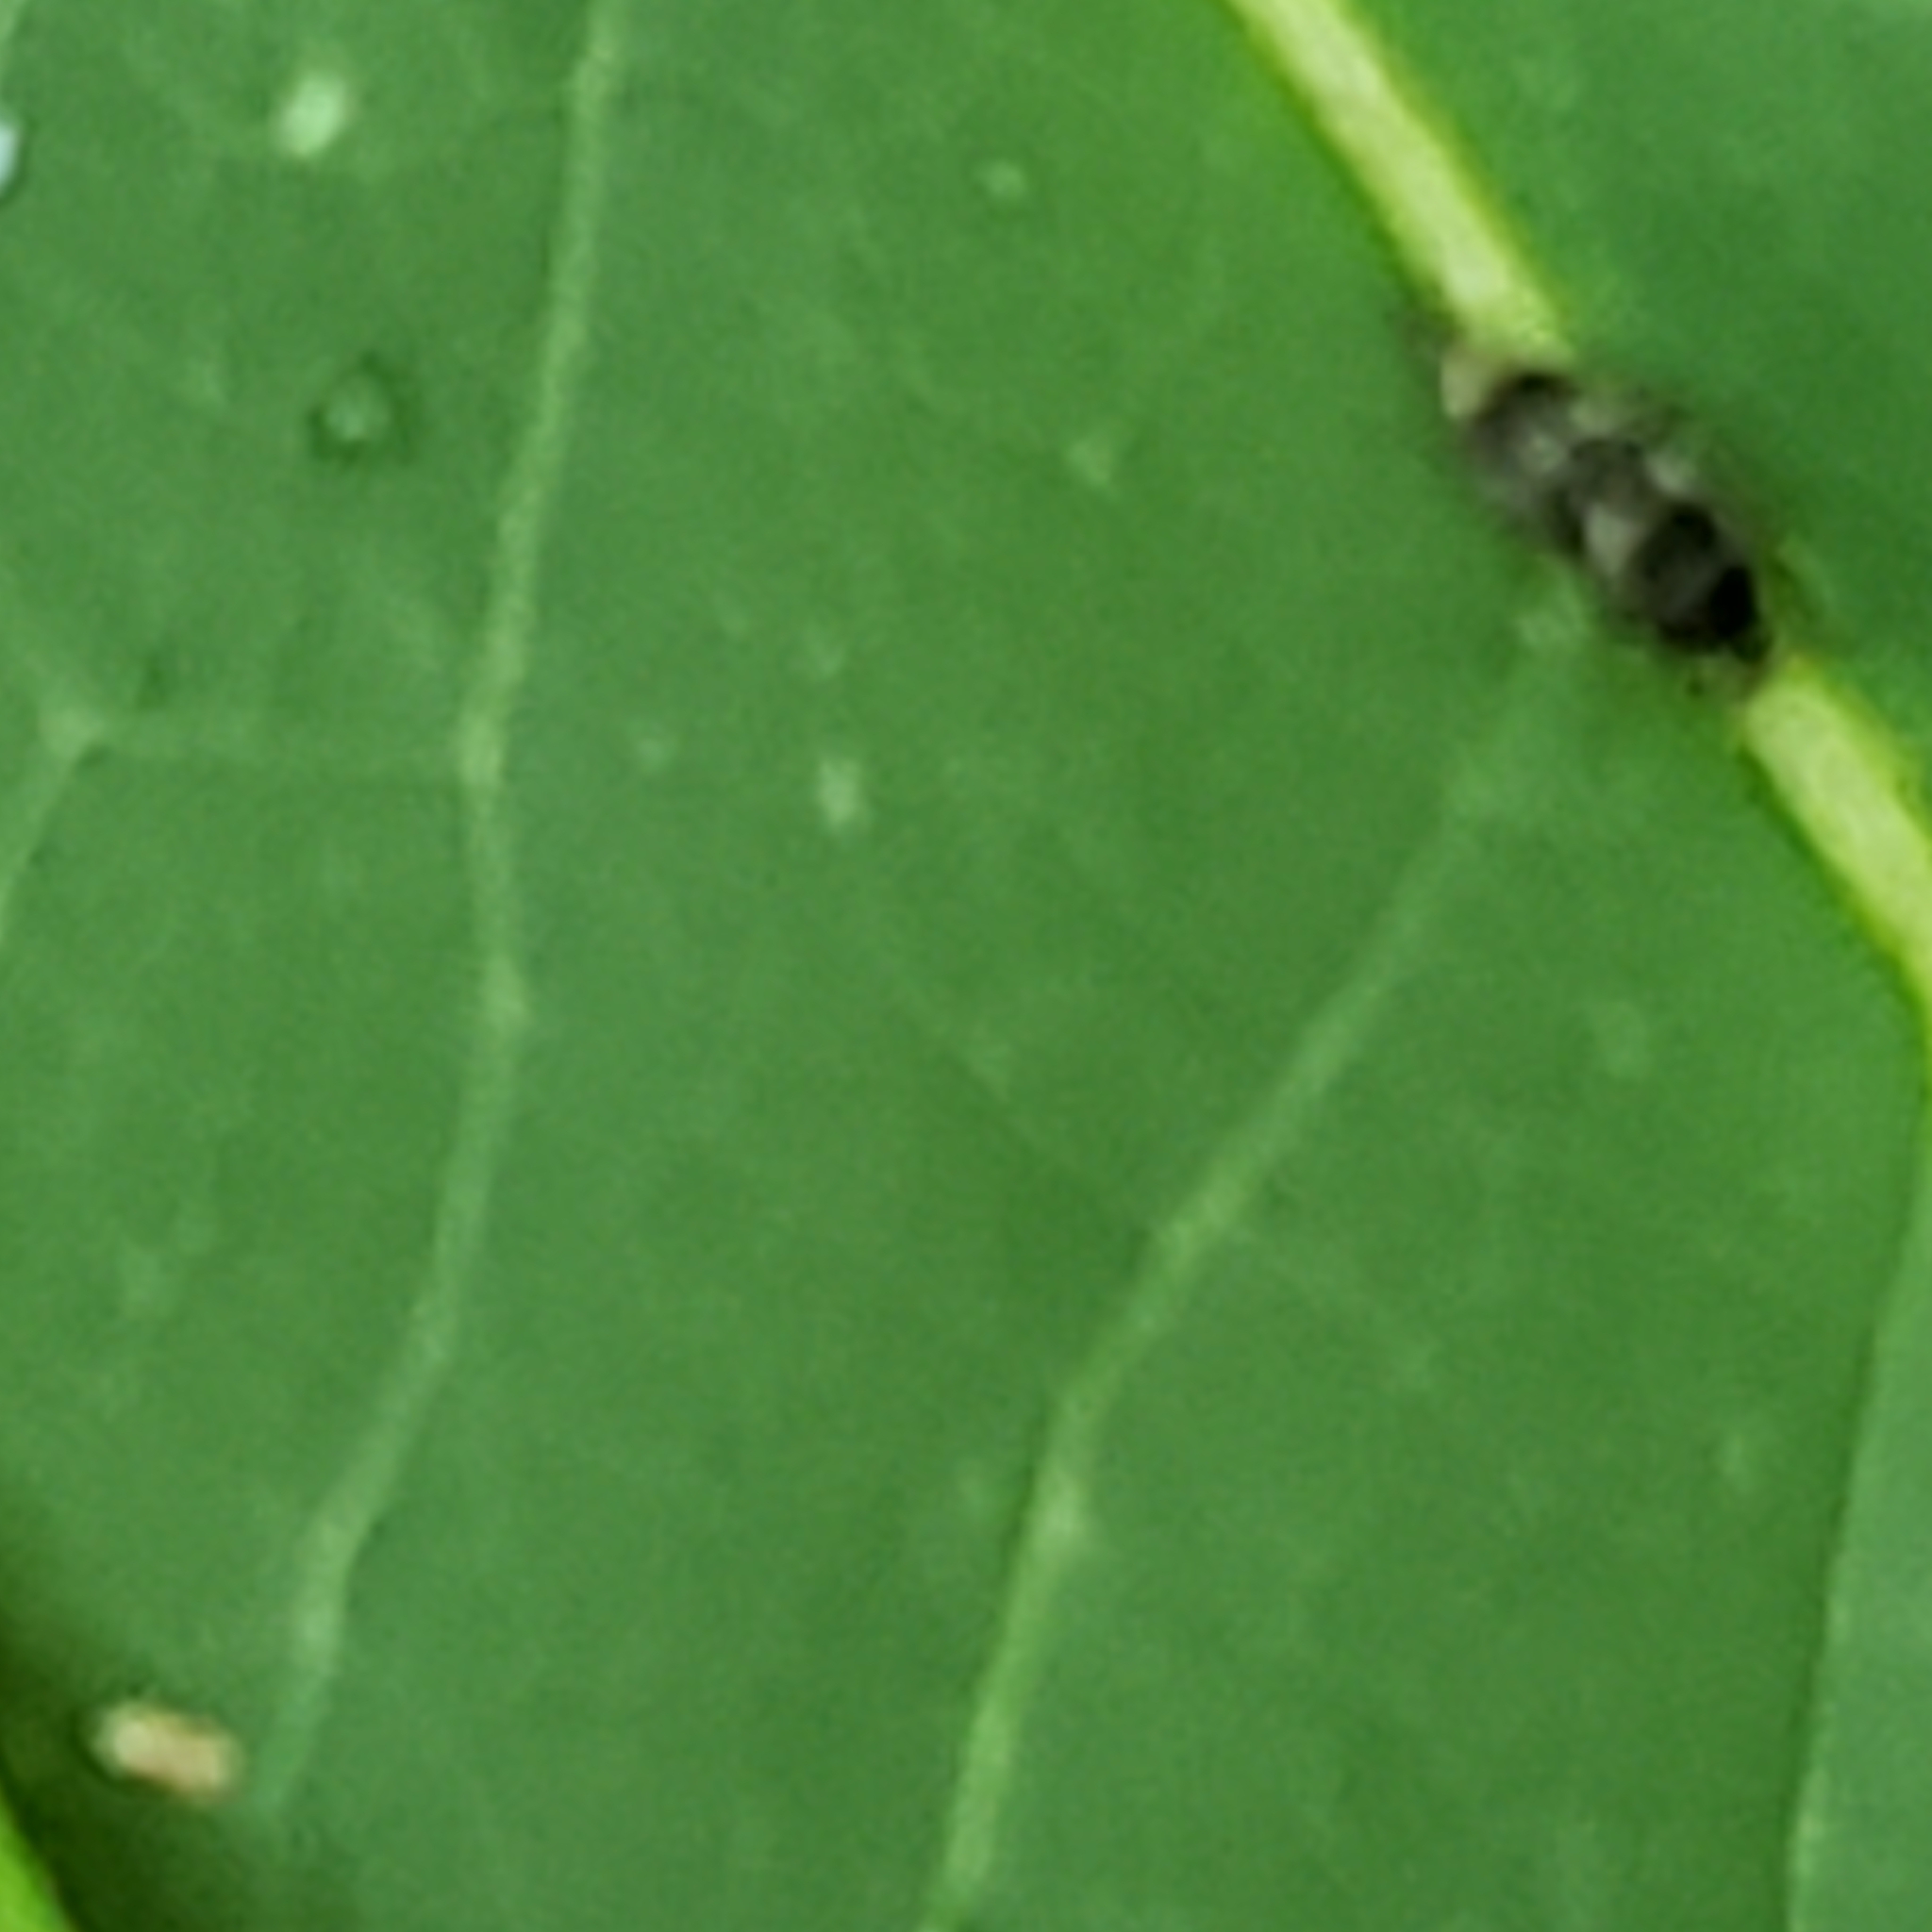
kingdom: Animalia
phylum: Arthropoda
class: Insecta
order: Coleoptera
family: Mordellidae
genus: Falsomordellistena
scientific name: Falsomordellistena pubescens
